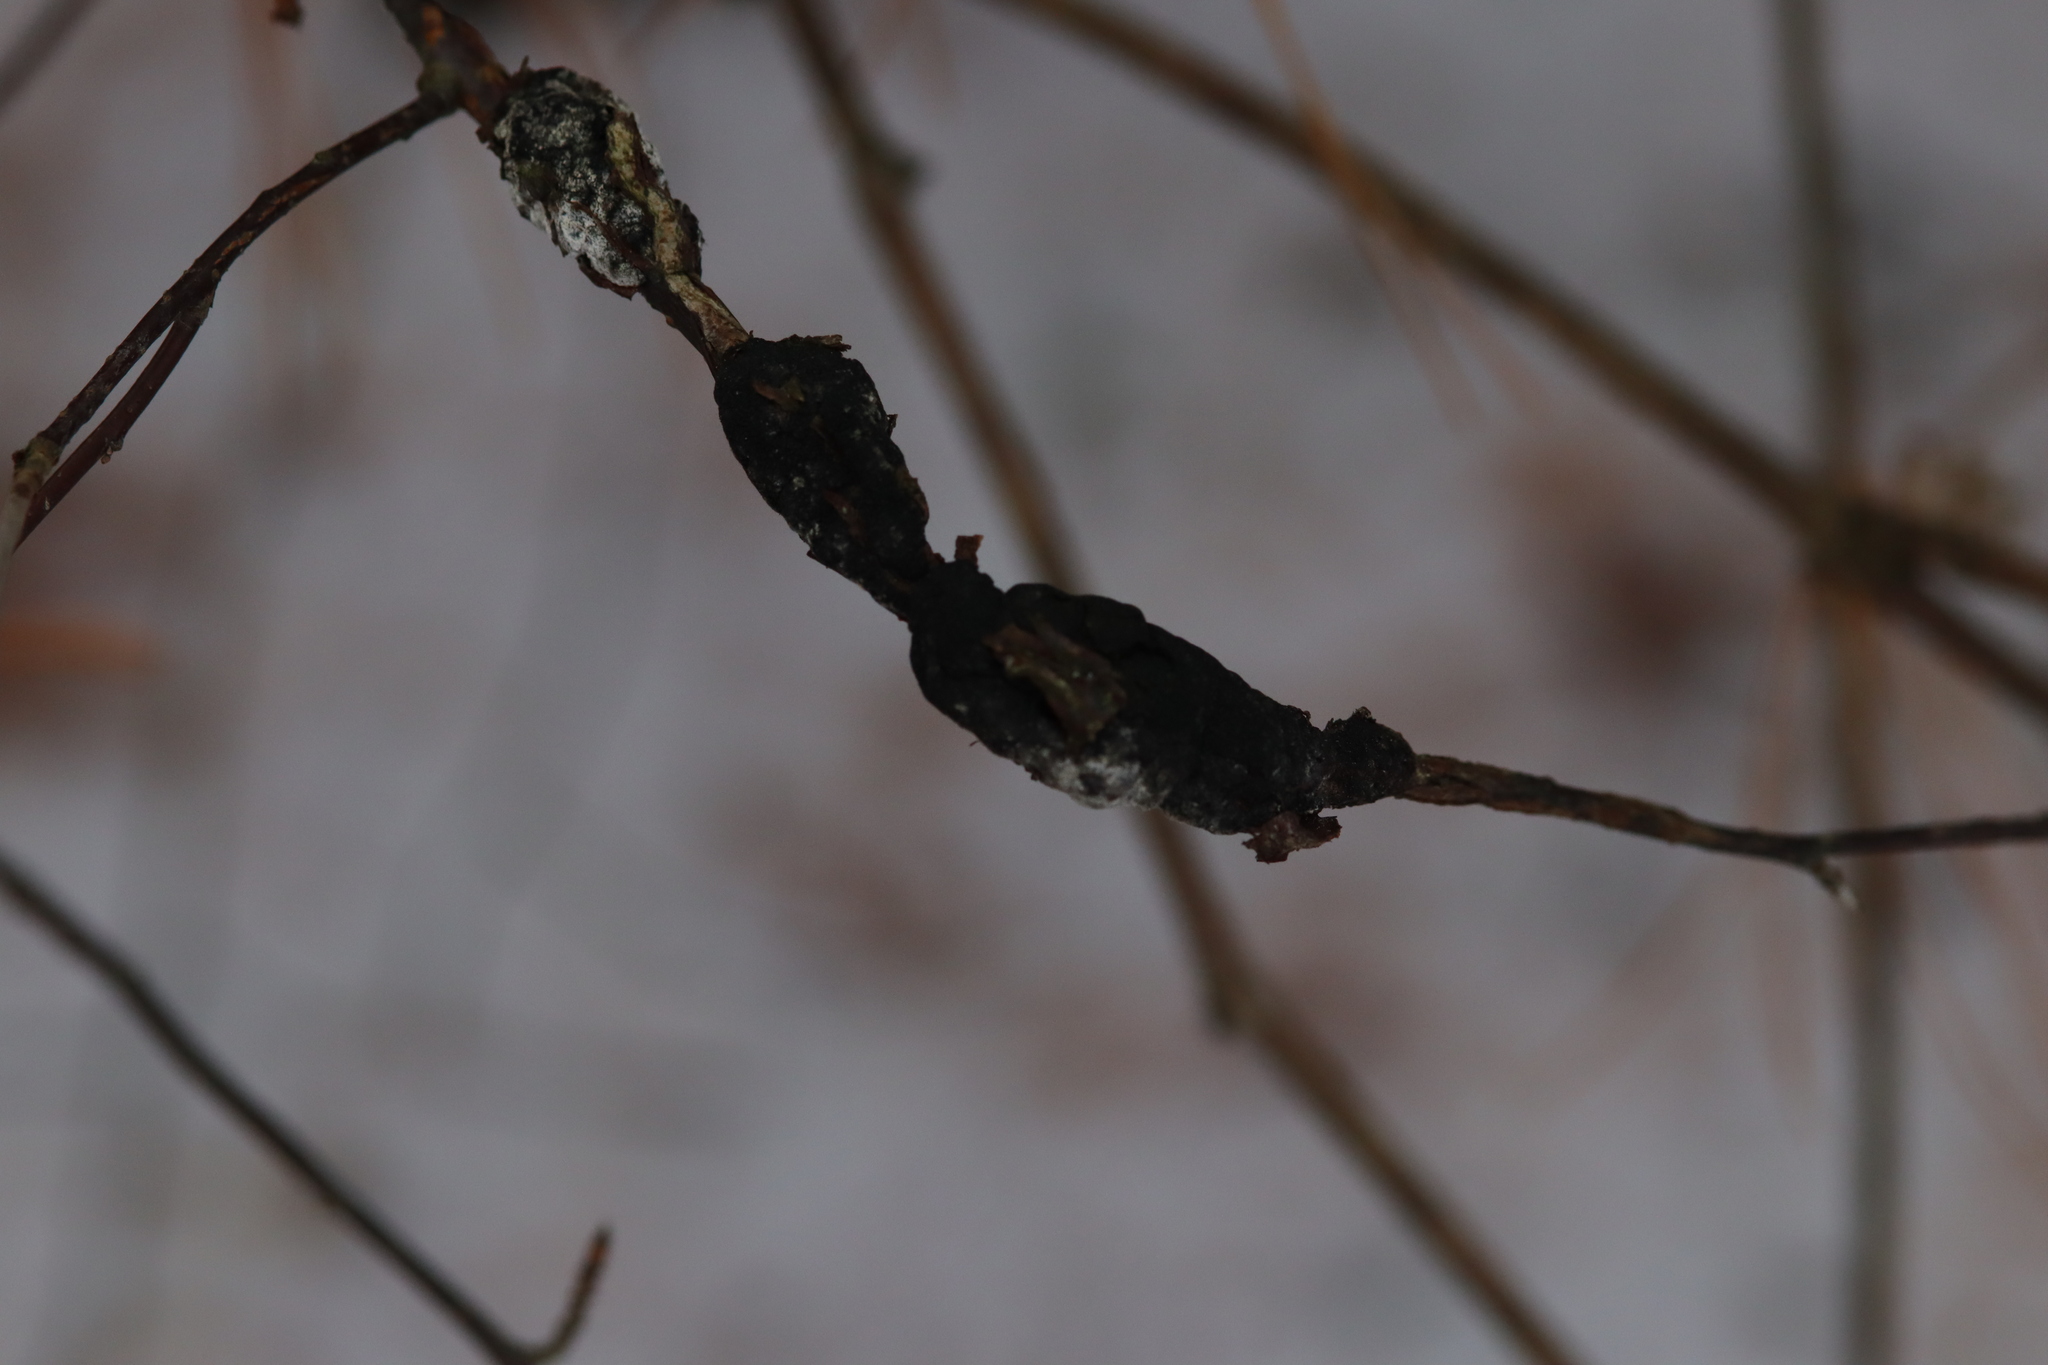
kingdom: Fungi
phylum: Ascomycota
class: Dothideomycetes
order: Venturiales
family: Venturiaceae
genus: Apiosporina
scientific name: Apiosporina morbosa
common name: Black knot
